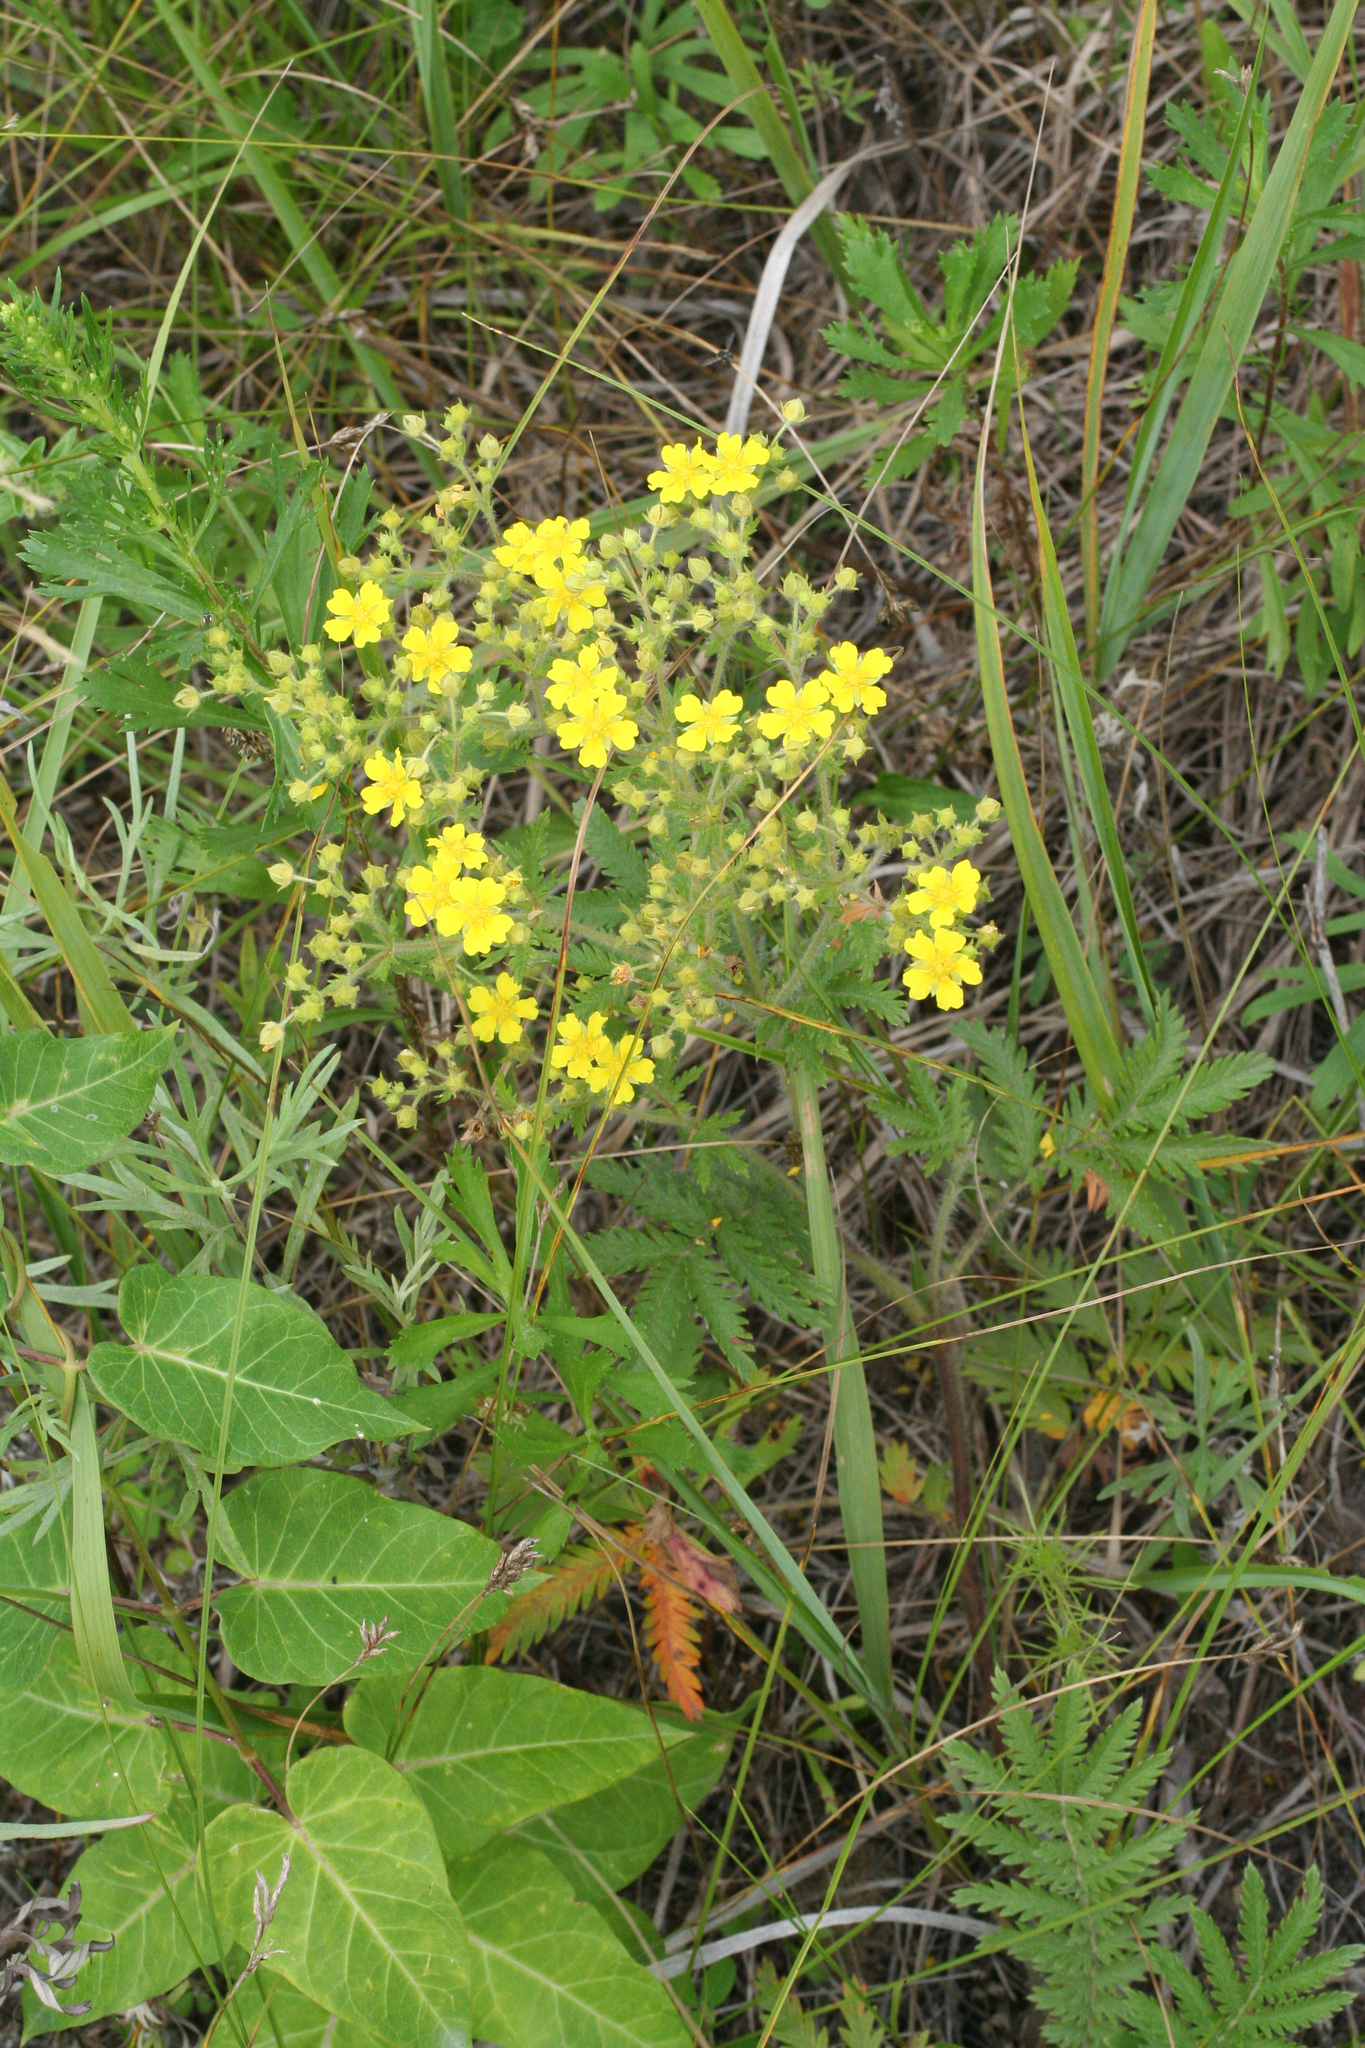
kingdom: Plantae
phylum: Tracheophyta
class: Magnoliopsida
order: Rosales
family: Rosaceae
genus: Potentilla
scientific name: Potentilla chinensis
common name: Chinese cinquefoil
